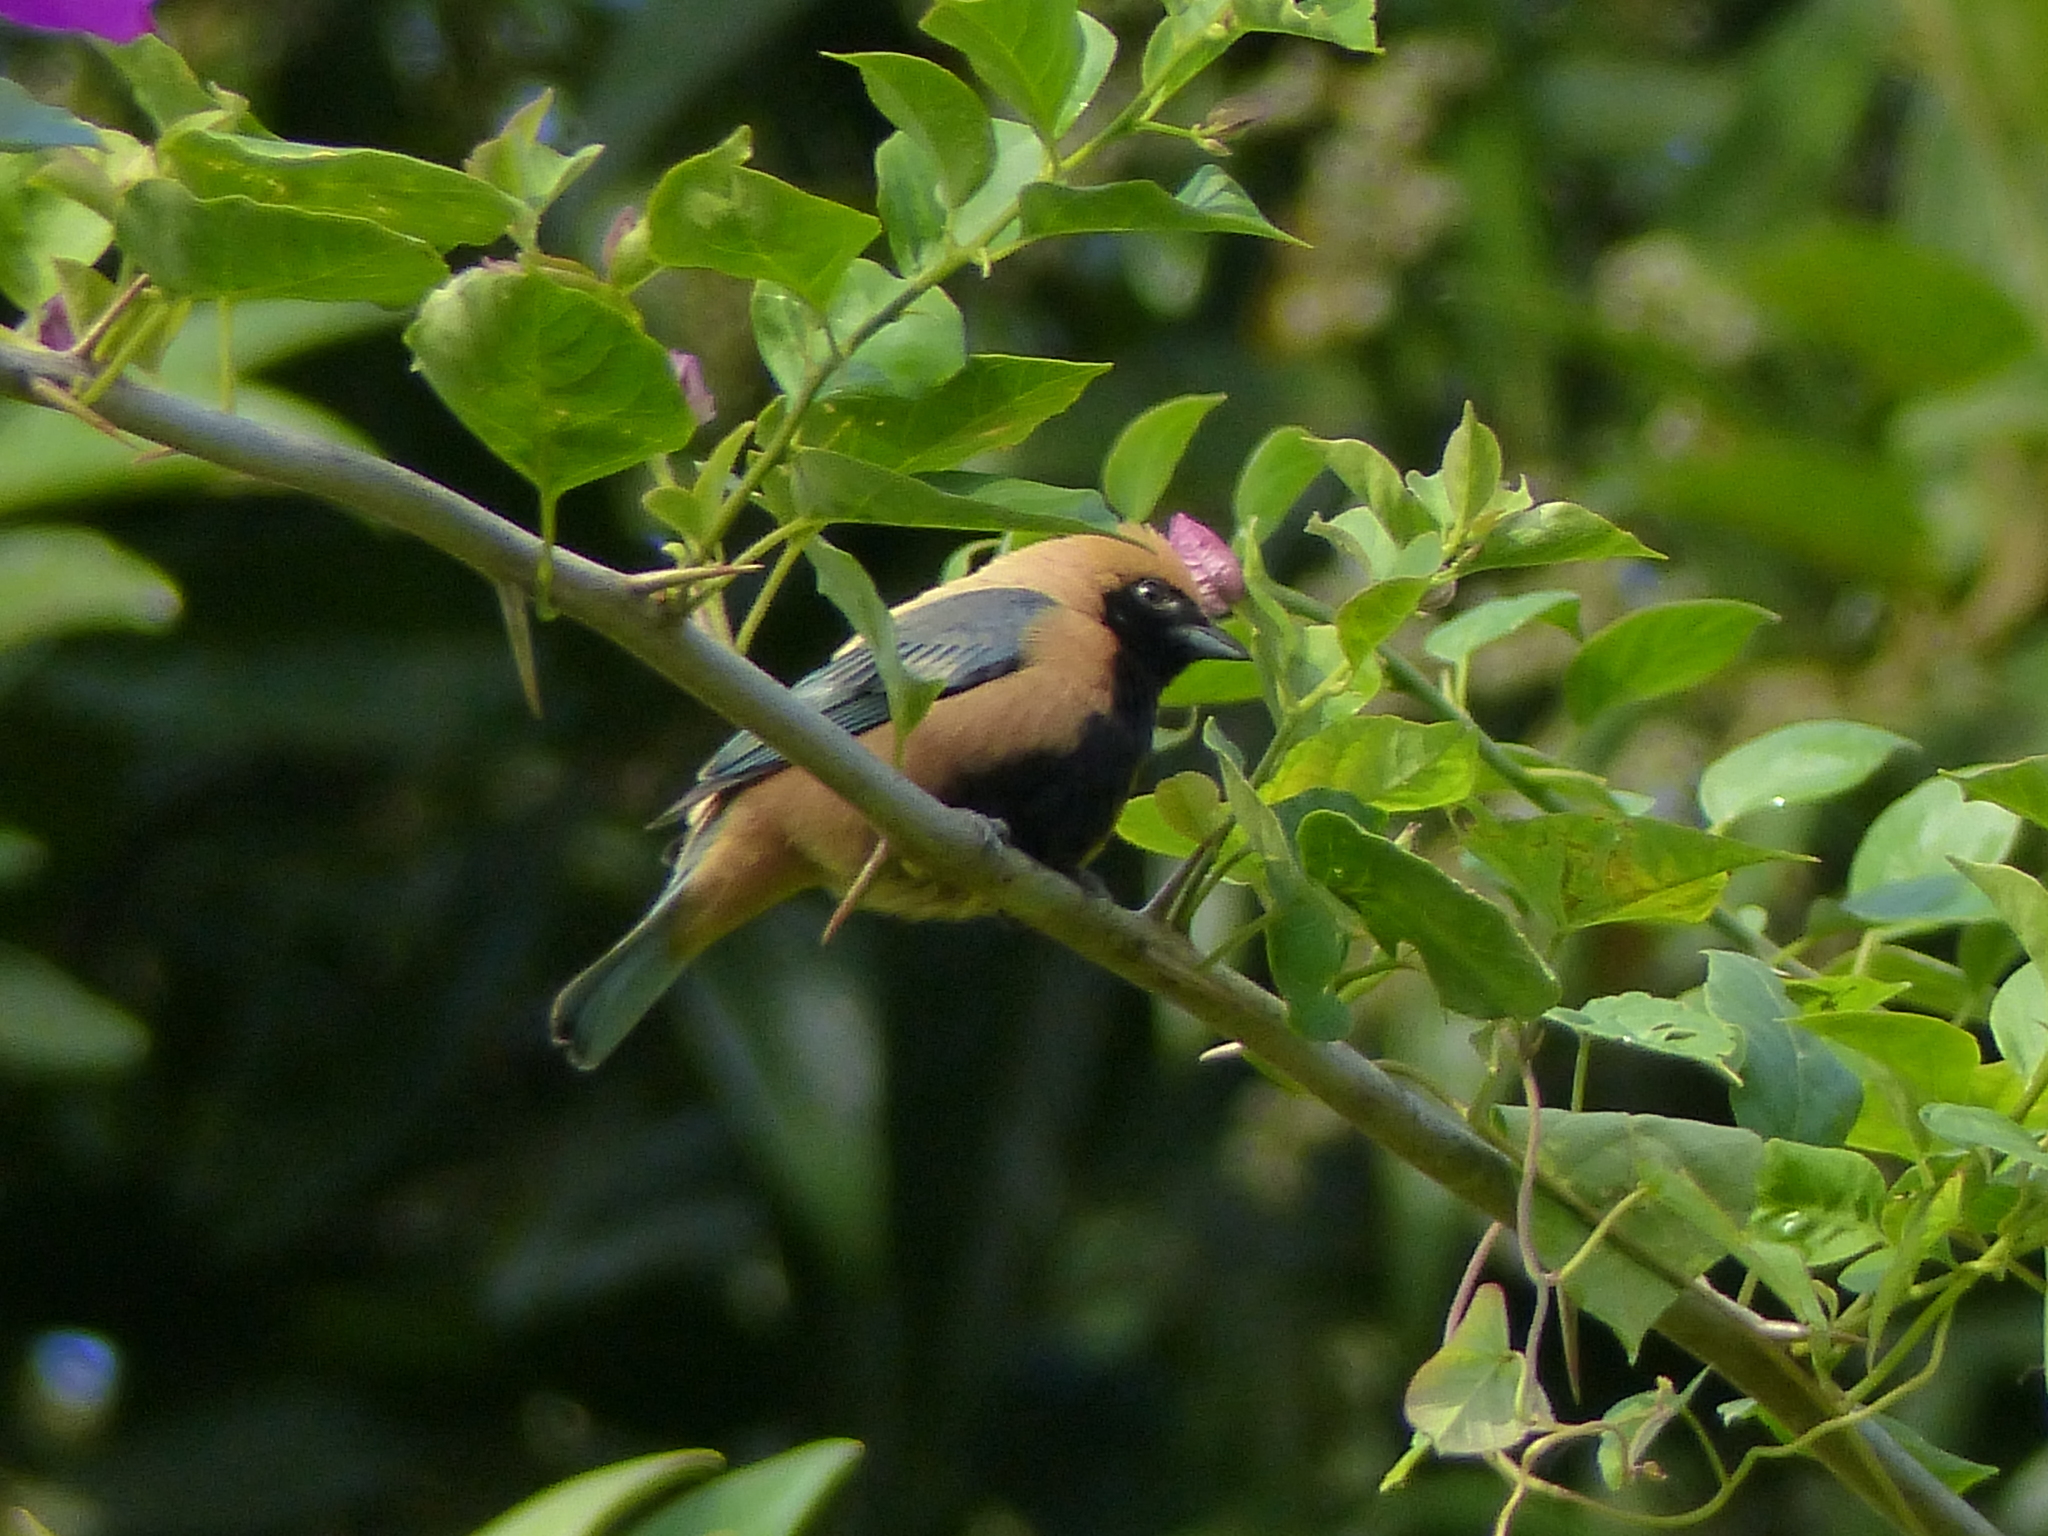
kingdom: Animalia
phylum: Chordata
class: Aves
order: Passeriformes
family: Thraupidae
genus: Stilpnia
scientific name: Stilpnia cayana
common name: Burnished-buff tanager
